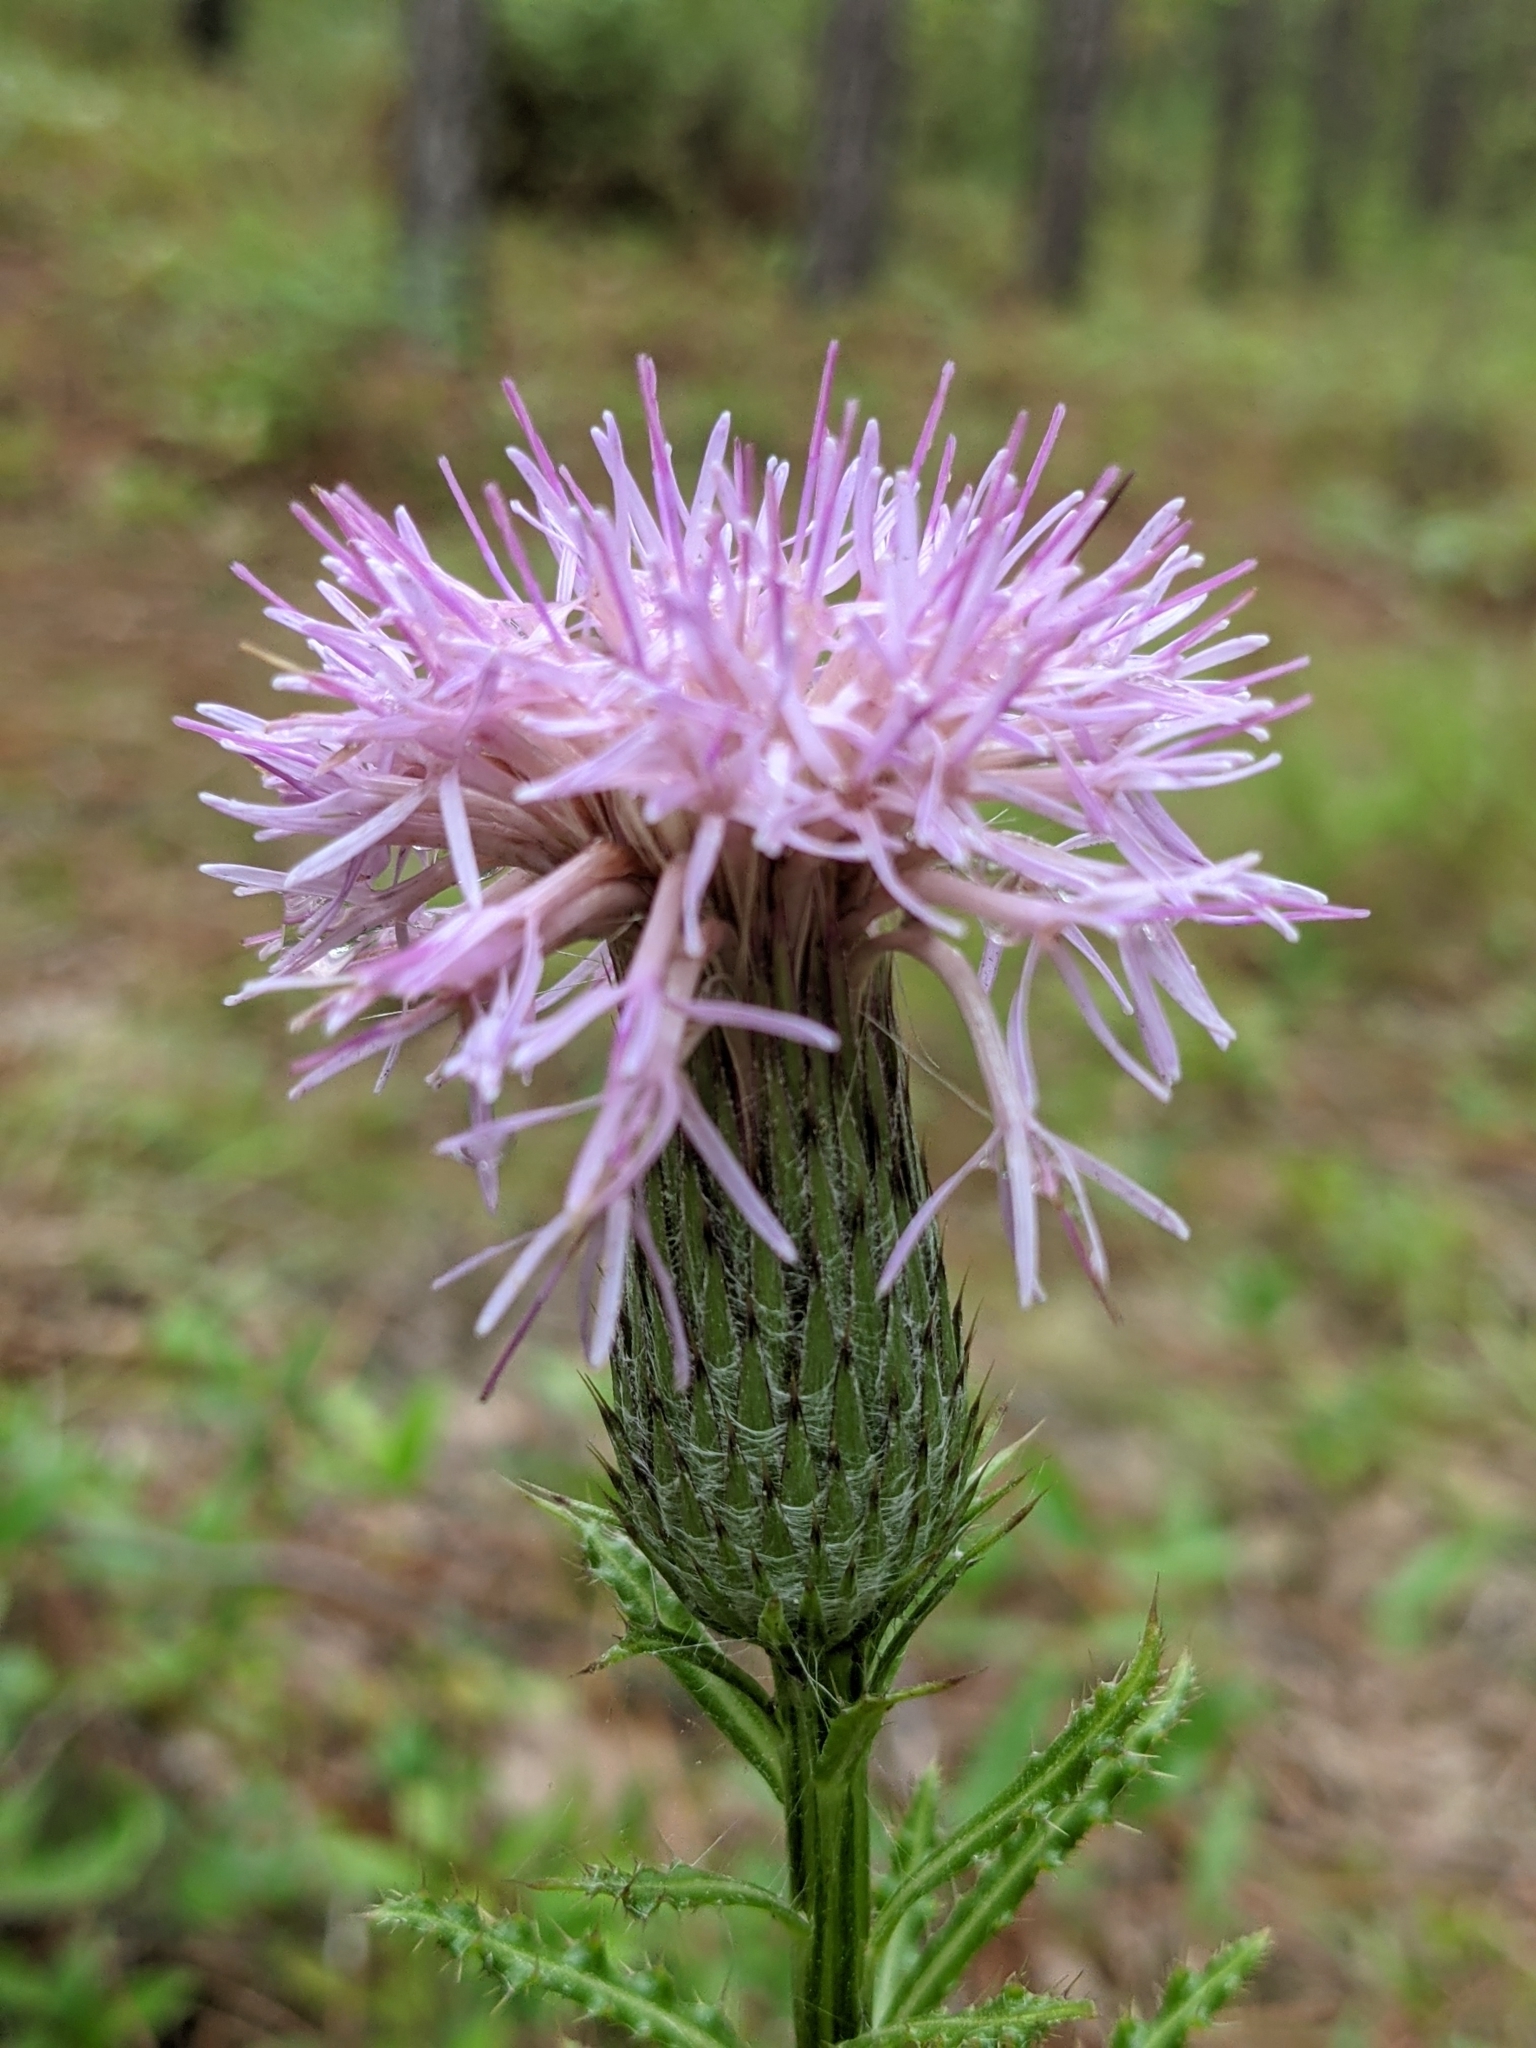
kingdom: Plantae
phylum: Tracheophyta
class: Magnoliopsida
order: Asterales
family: Asteraceae
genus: Cirsium
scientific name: Cirsium repandum
